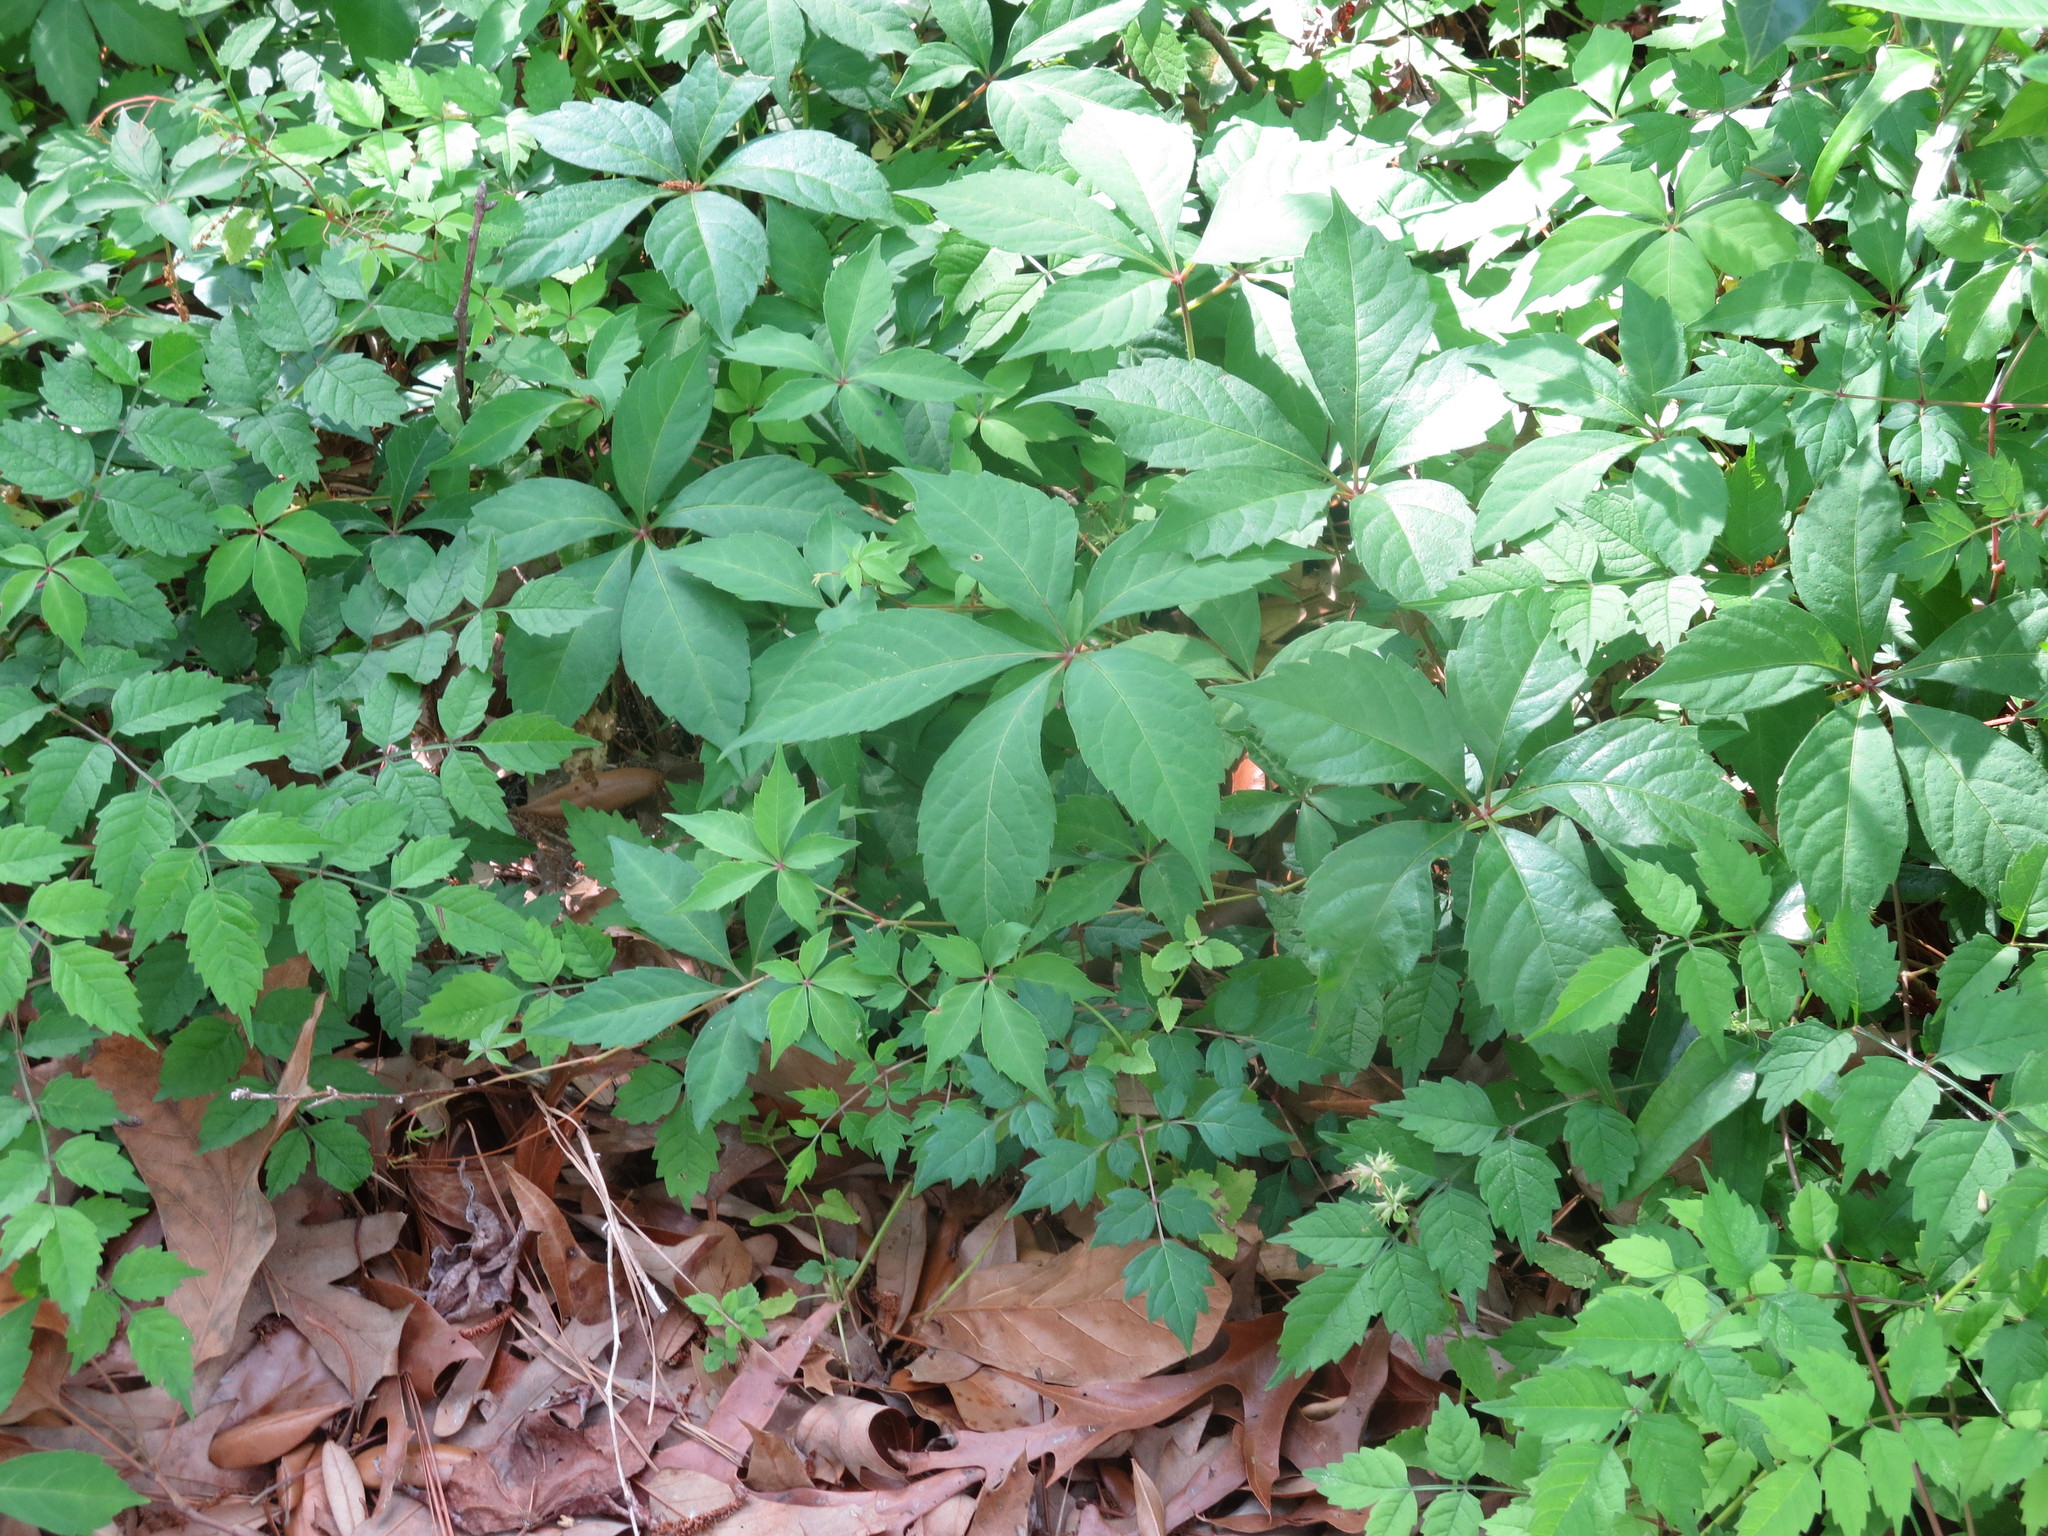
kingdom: Plantae
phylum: Tracheophyta
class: Magnoliopsida
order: Vitales
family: Vitaceae
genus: Parthenocissus
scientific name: Parthenocissus quinquefolia
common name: Virginia-creeper
